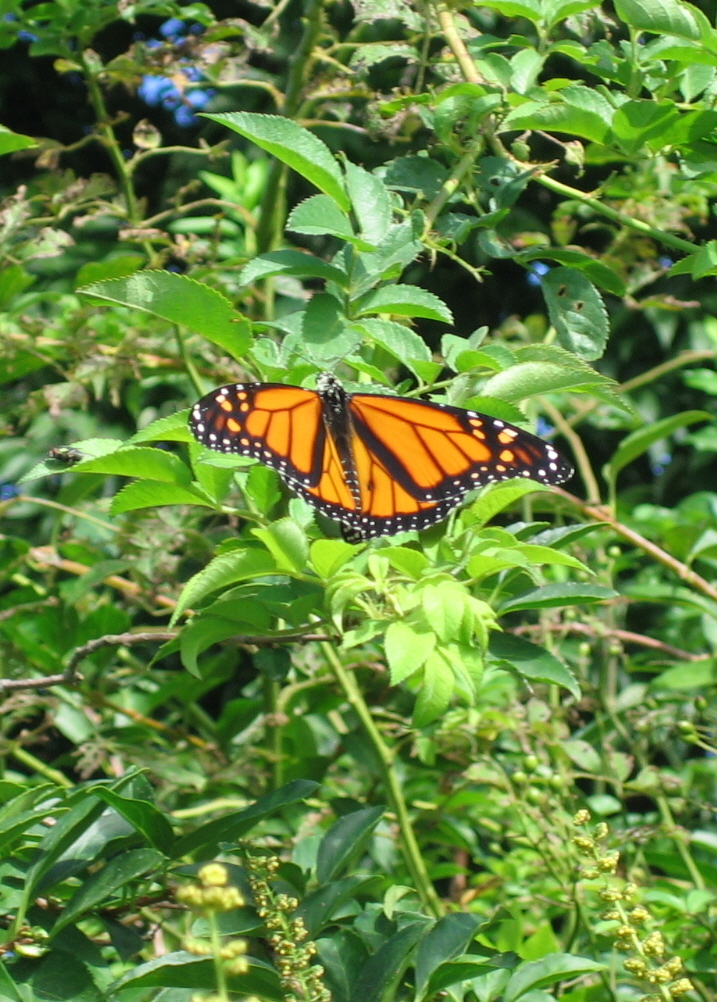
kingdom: Animalia
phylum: Arthropoda
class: Insecta
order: Lepidoptera
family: Nymphalidae
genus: Danaus
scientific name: Danaus plexippus
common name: Monarch
